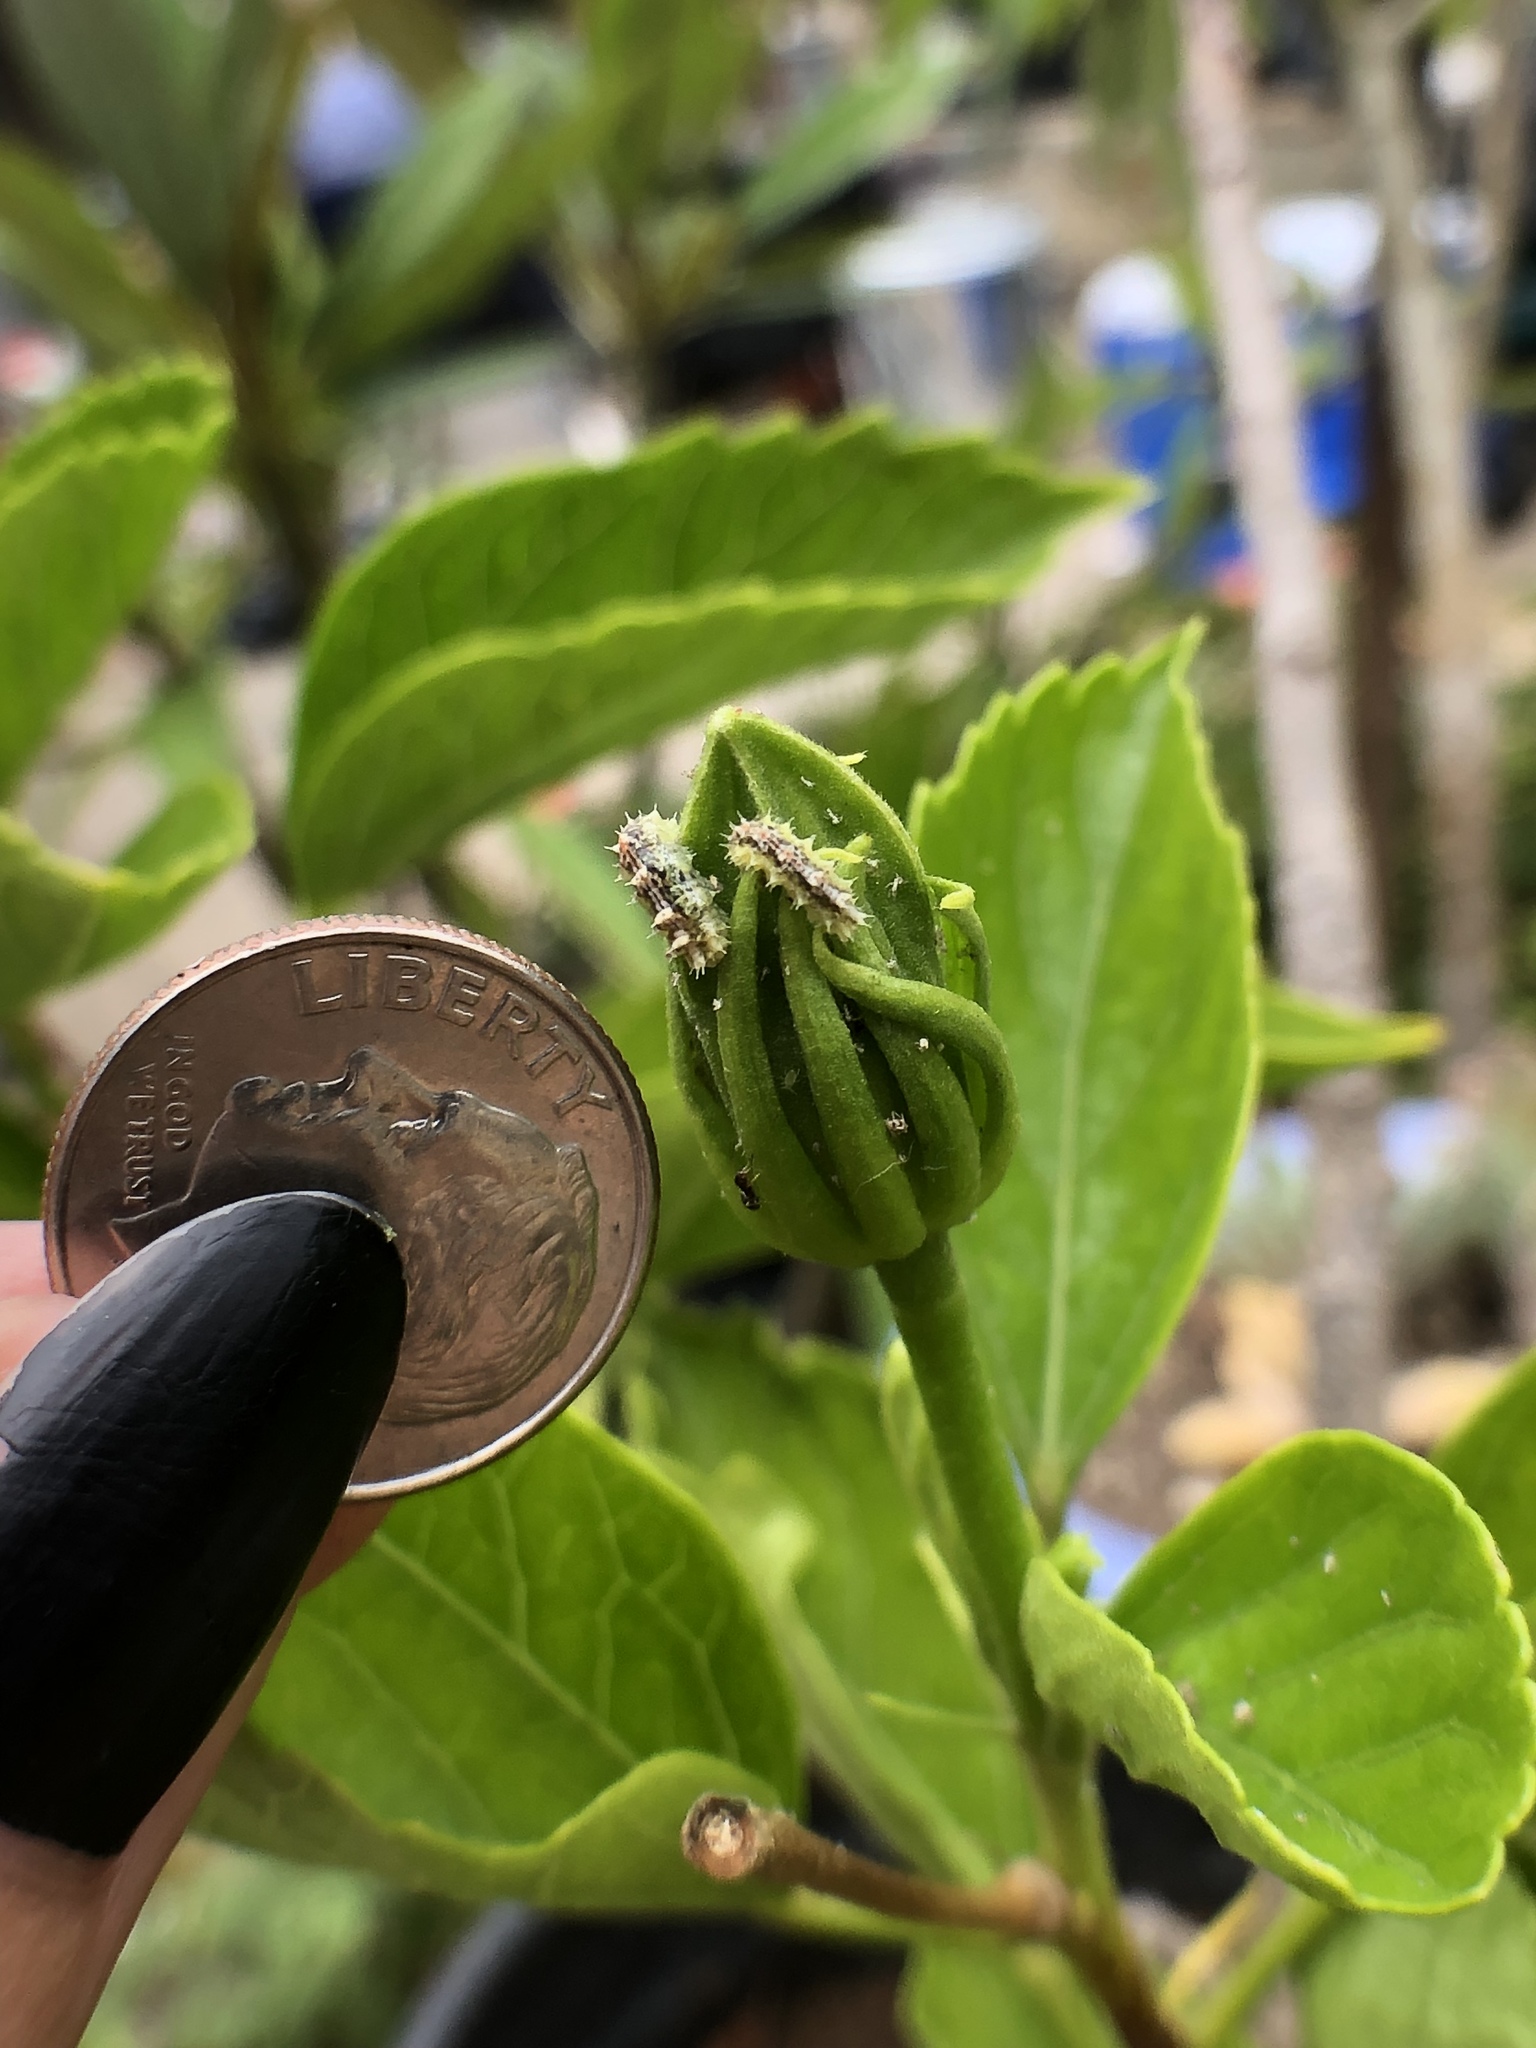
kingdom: Animalia
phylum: Arthropoda
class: Insecta
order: Diptera
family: Syrphidae
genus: Dioprosopa
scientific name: Dioprosopa clavatus
